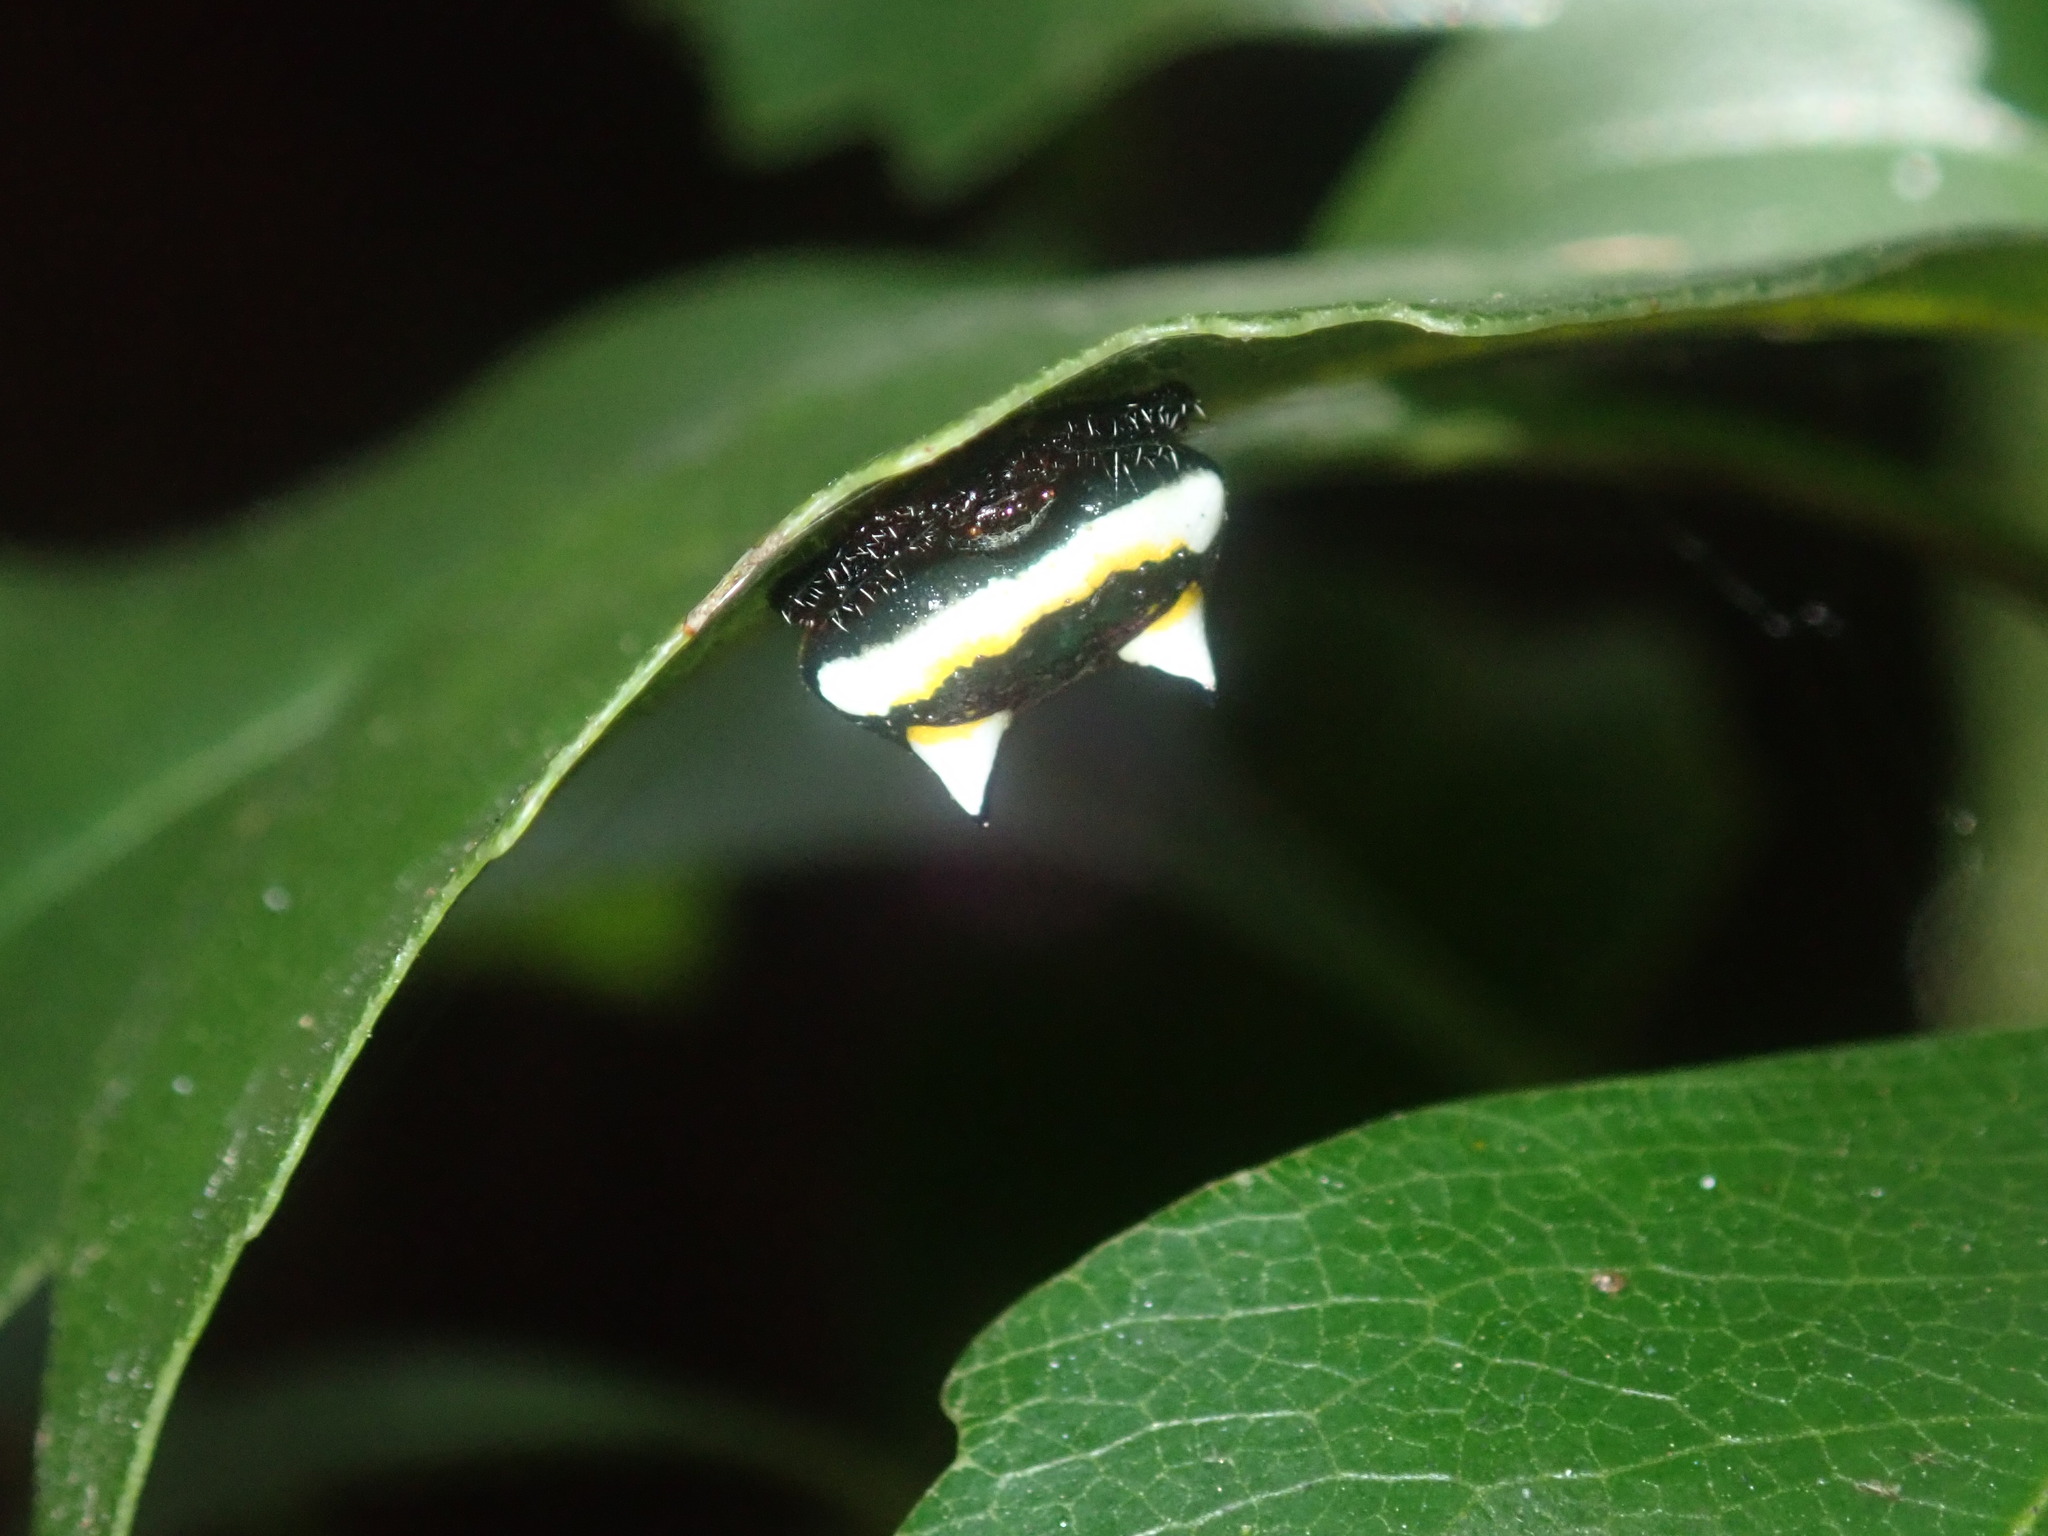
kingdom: Animalia
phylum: Arthropoda
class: Arachnida
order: Araneae
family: Araneidae
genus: Poecilopachys
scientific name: Poecilopachys australasia
